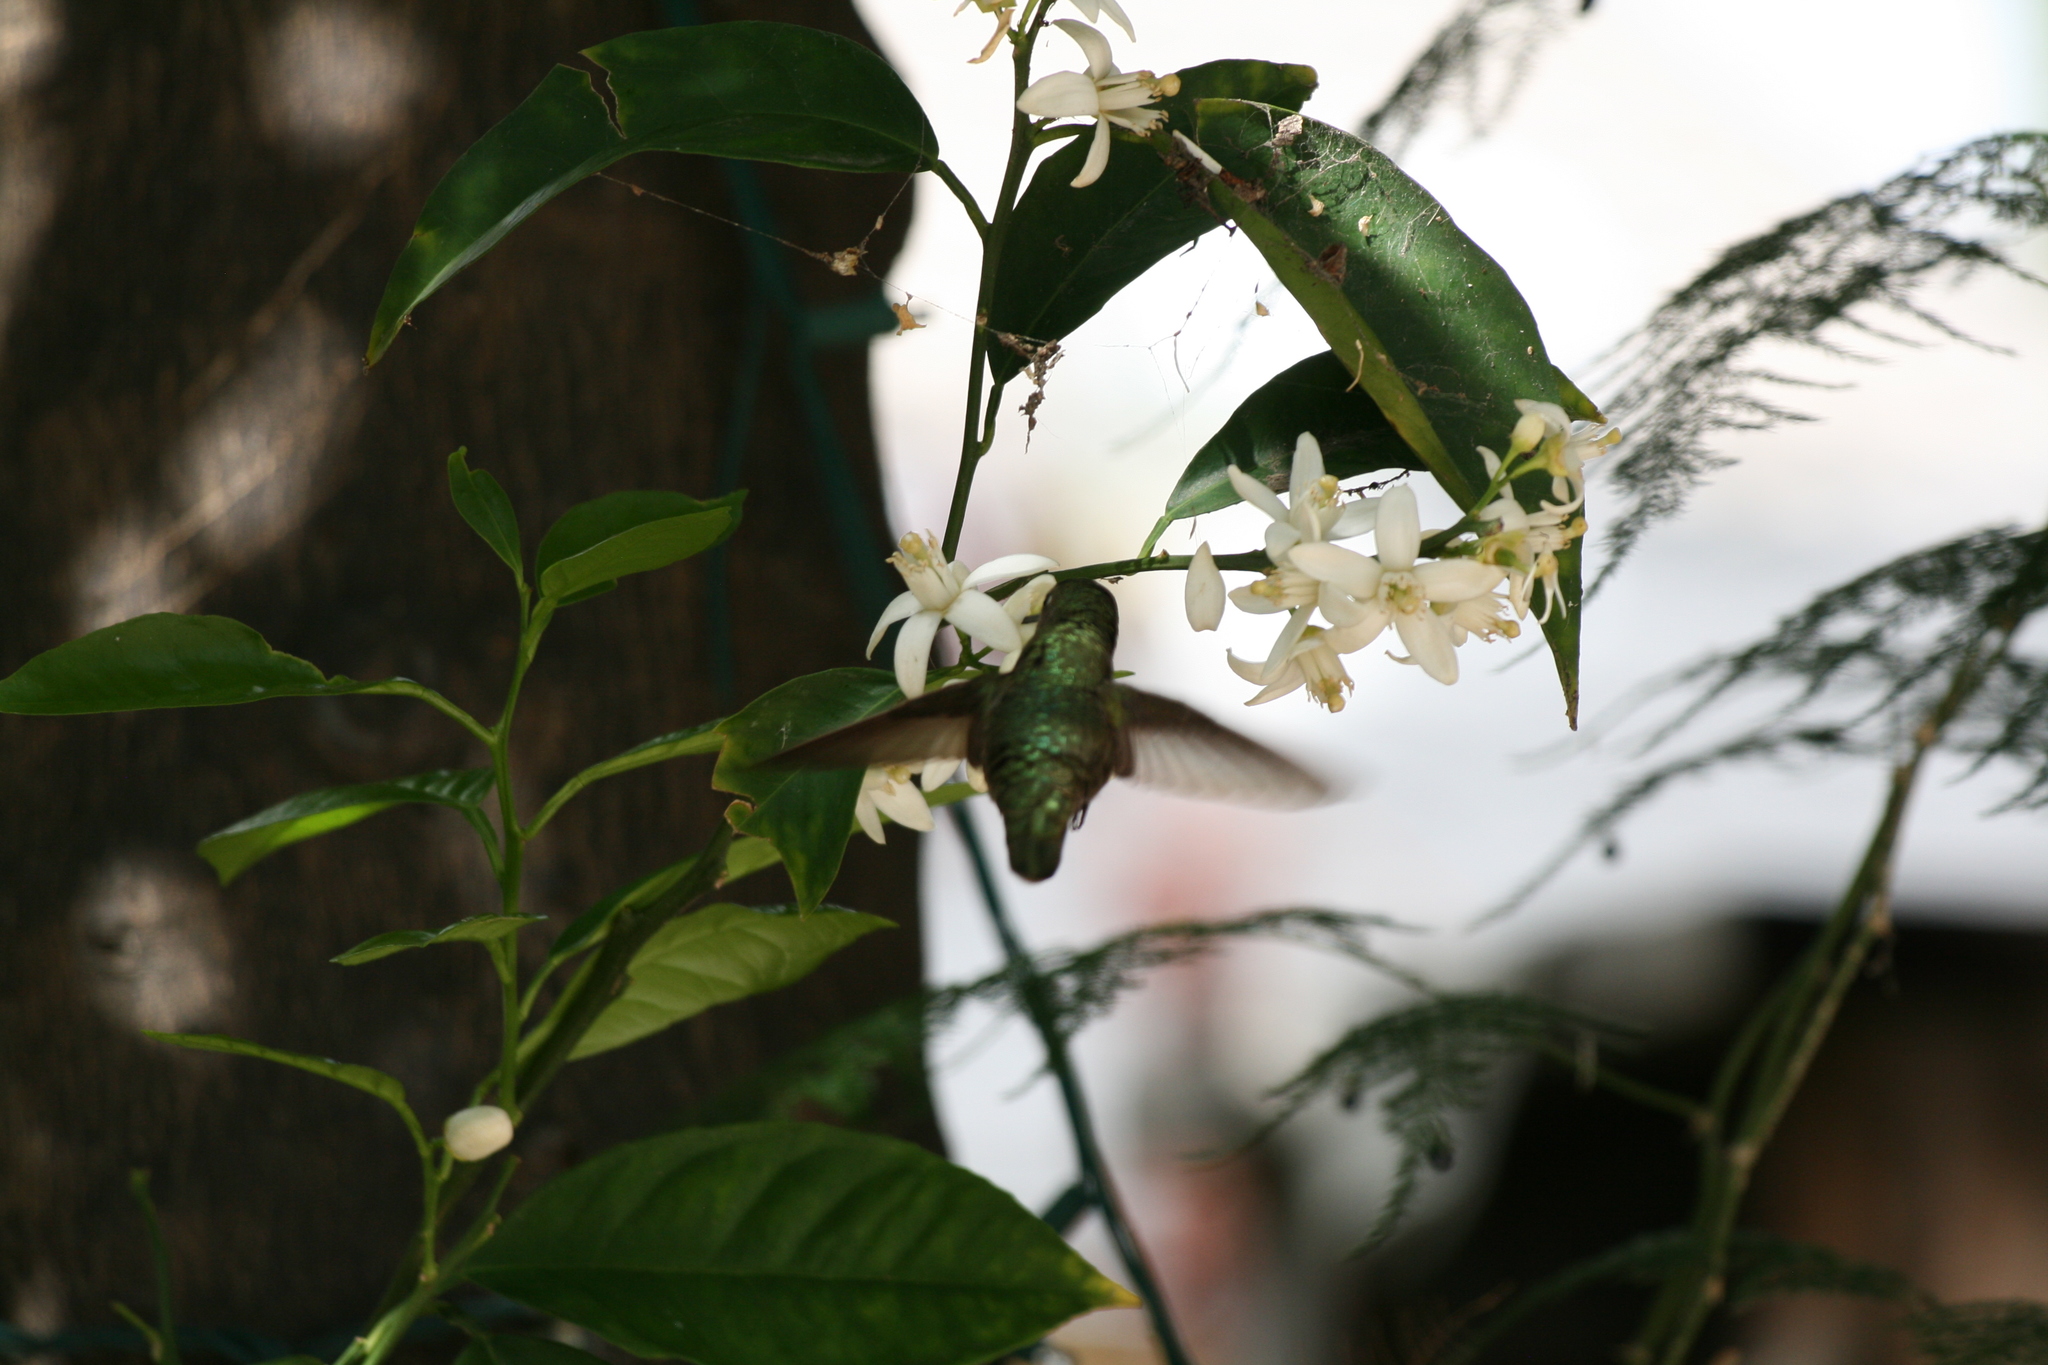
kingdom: Animalia
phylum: Chordata
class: Aves
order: Apodiformes
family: Trochilidae
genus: Calypte
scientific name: Calypte anna
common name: Anna's hummingbird
